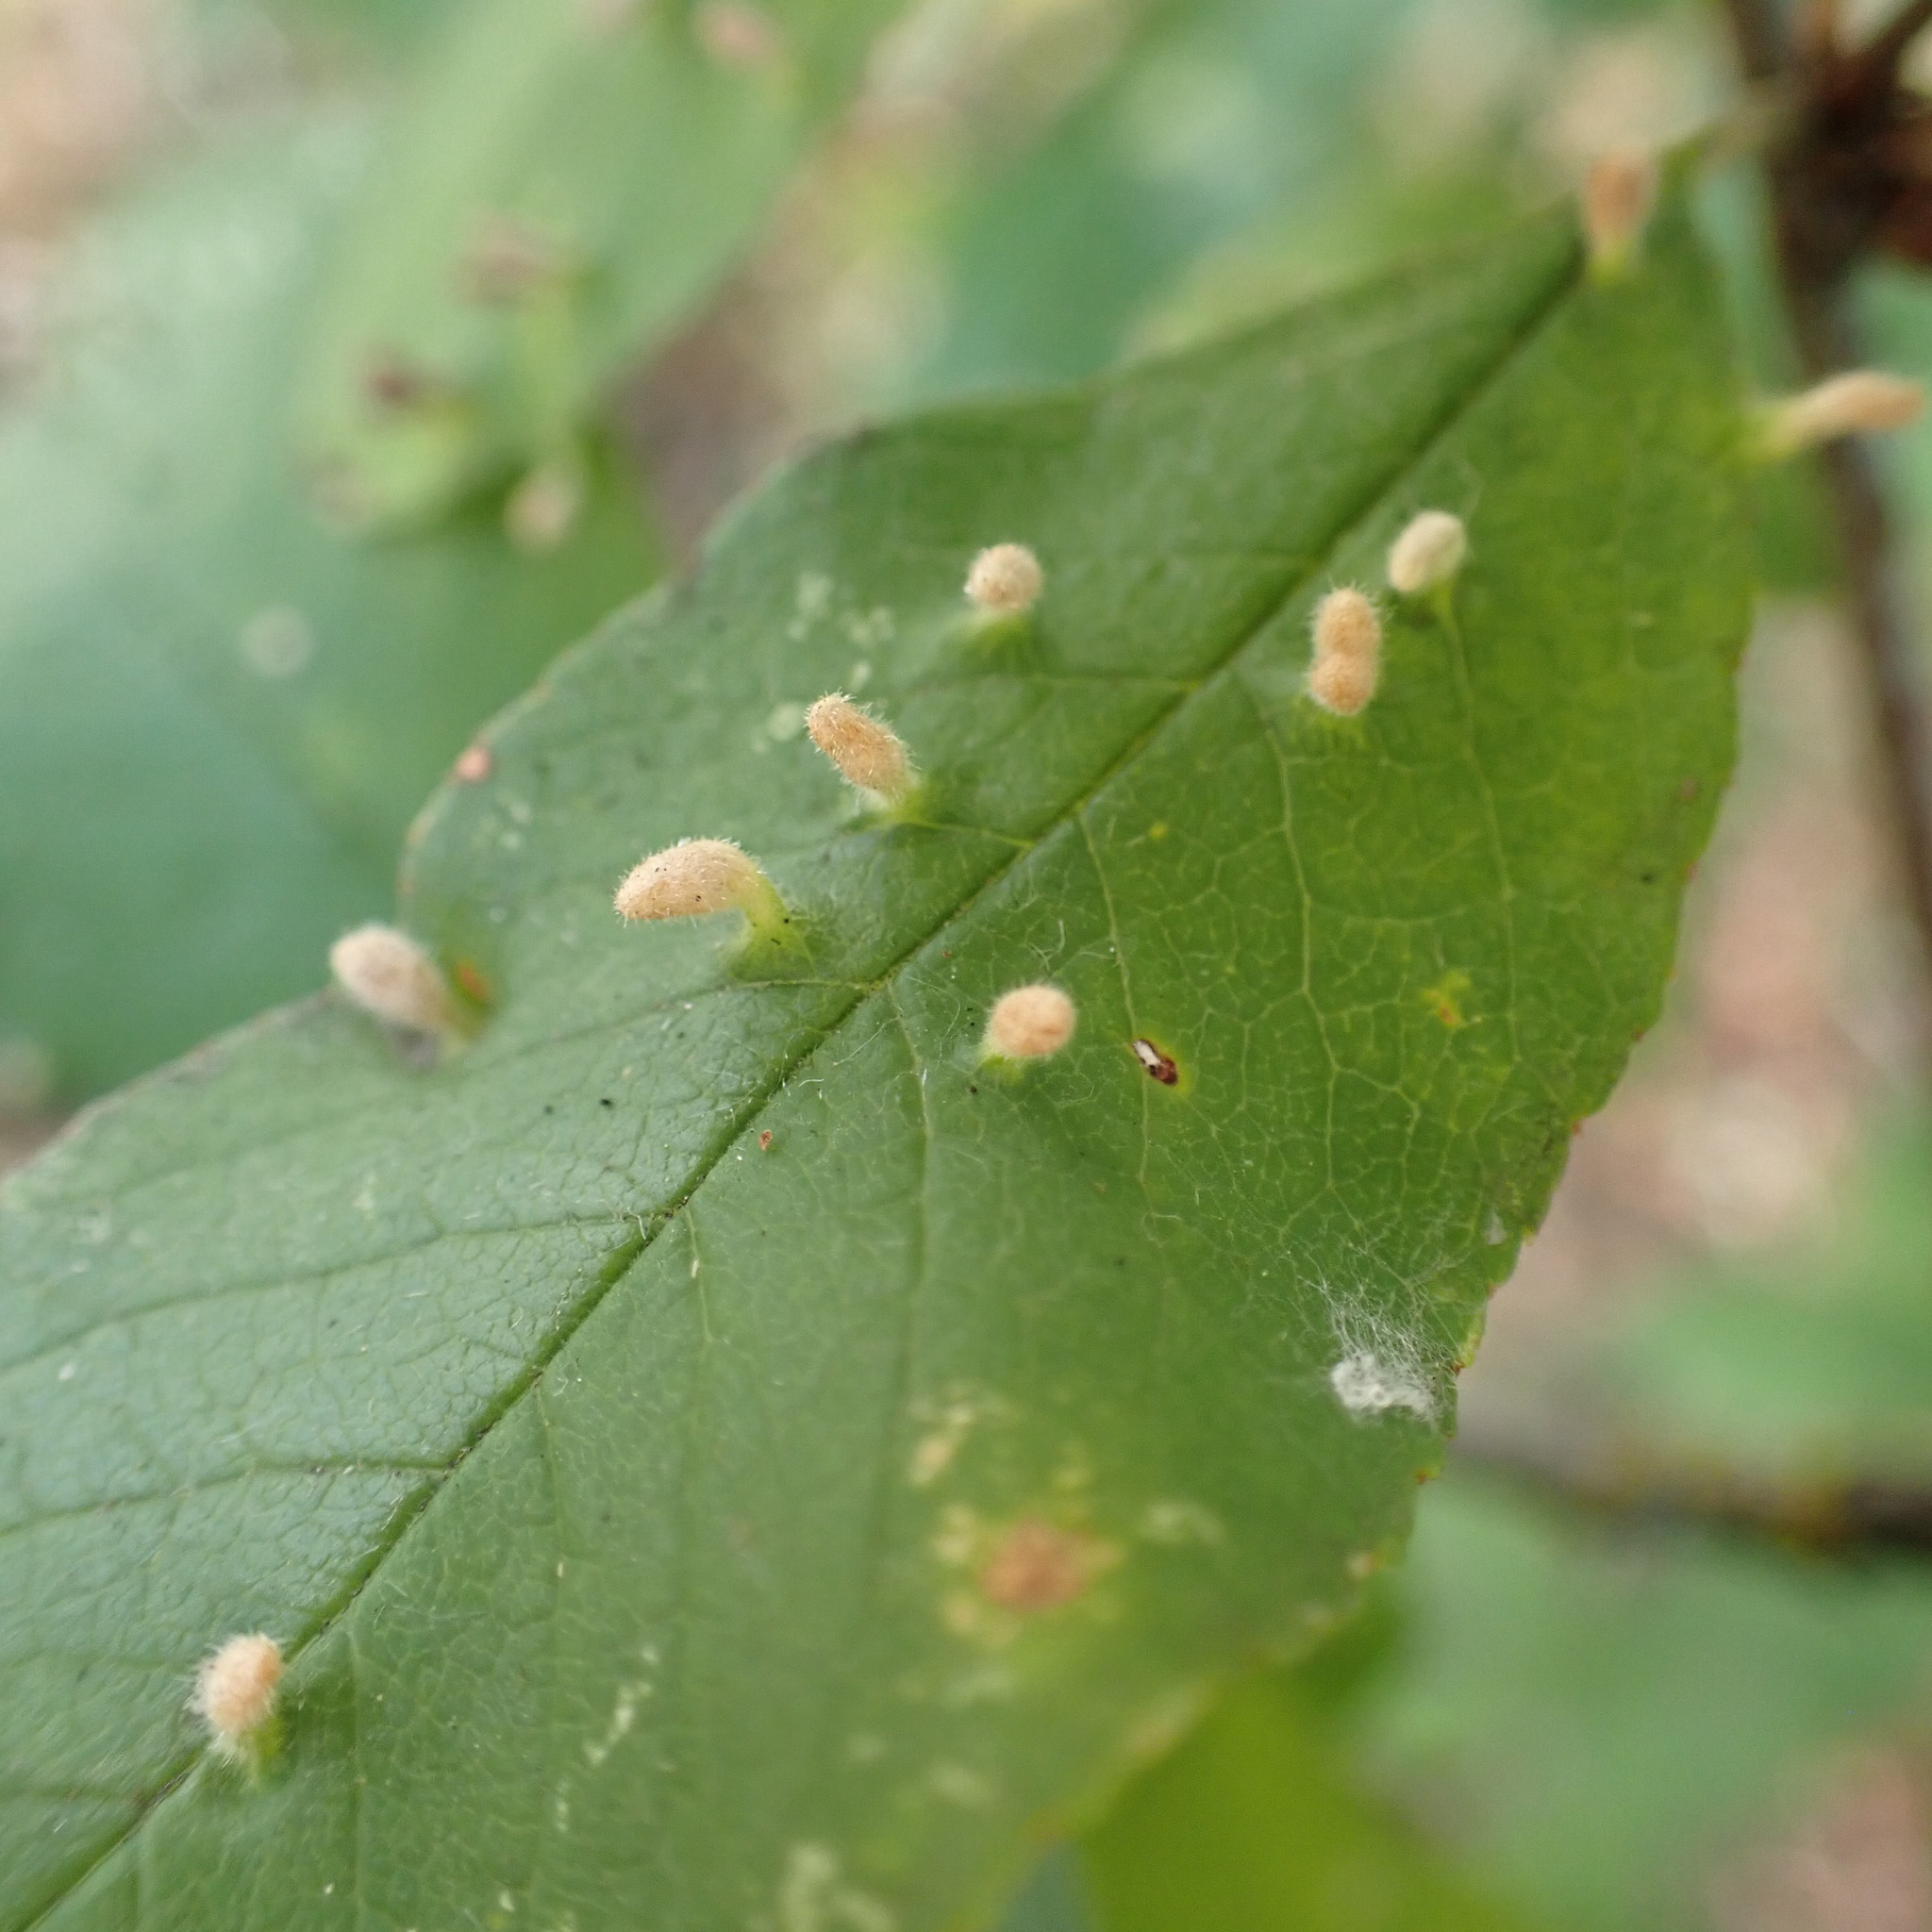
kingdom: Animalia
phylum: Arthropoda
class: Arachnida
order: Trombidiformes
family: Eriophyidae
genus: Eriophyes
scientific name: Eriophyes emarginatae
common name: Plum leaf gall mite
